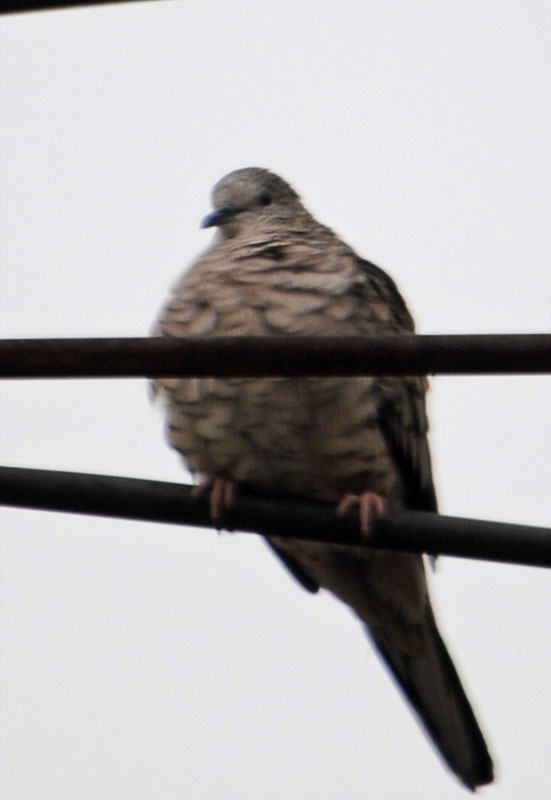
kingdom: Animalia
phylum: Chordata
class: Aves
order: Columbiformes
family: Columbidae
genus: Columbina
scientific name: Columbina inca
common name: Inca dove
